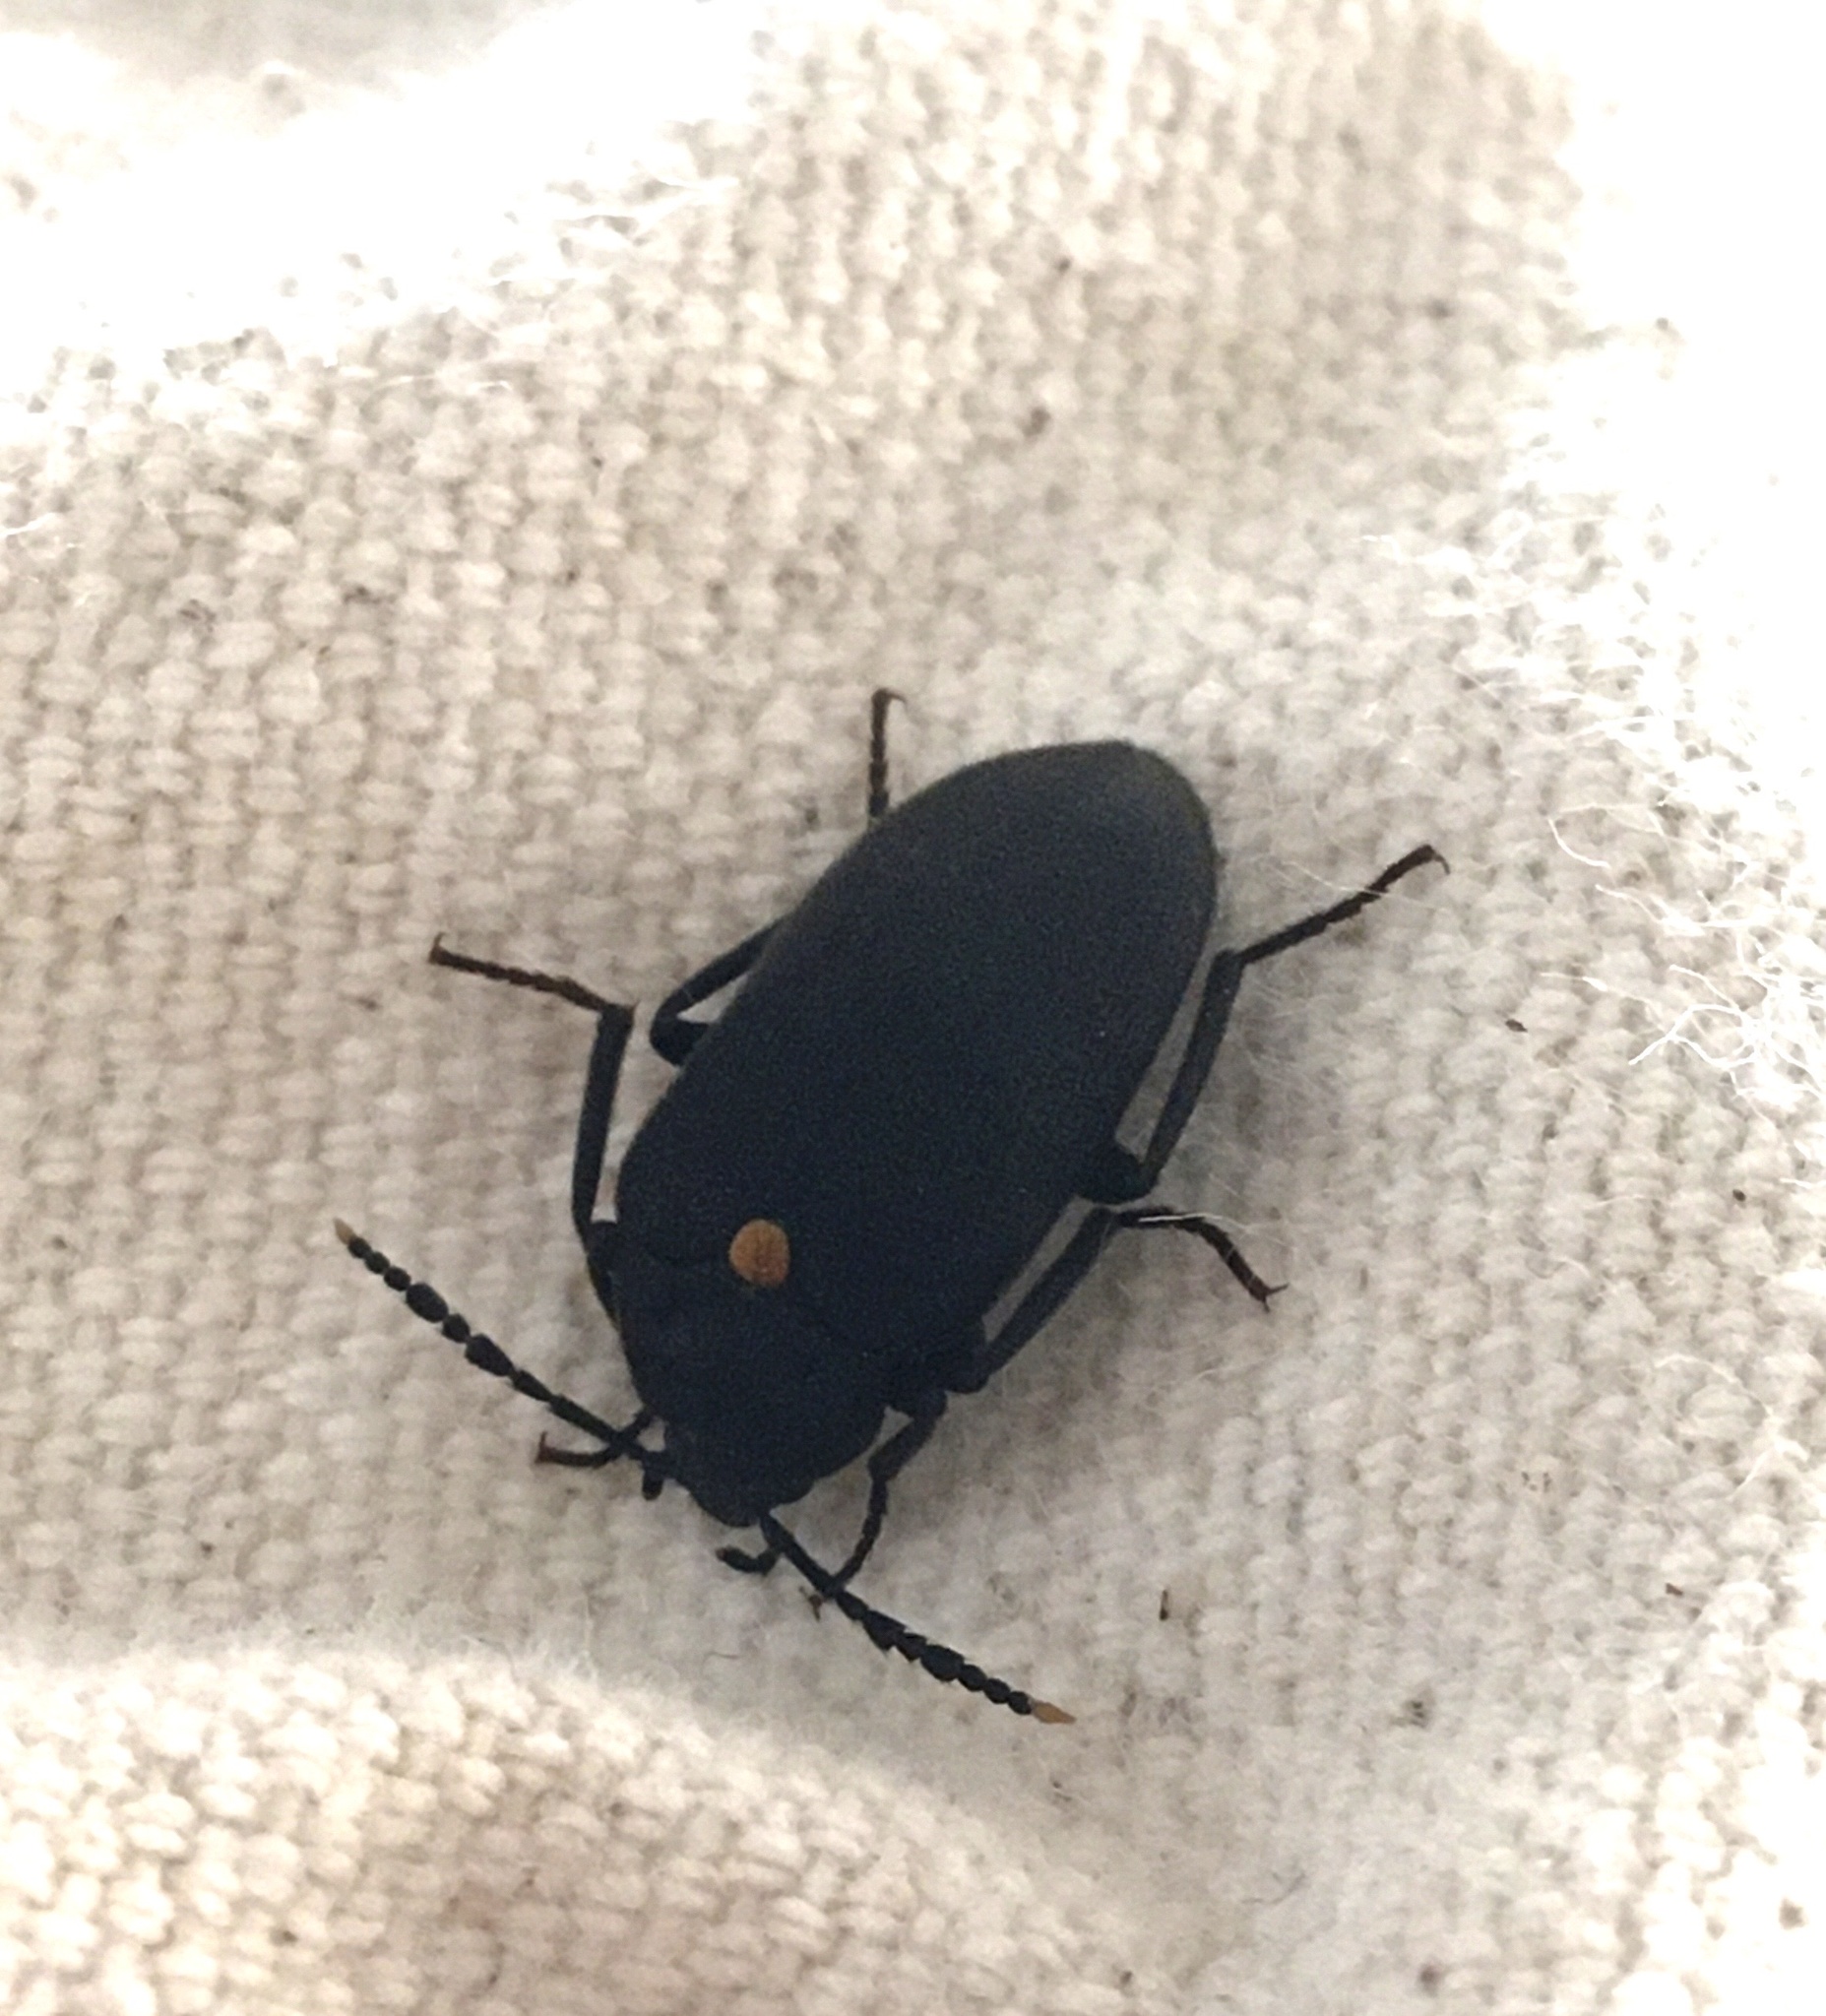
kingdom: Animalia
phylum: Arthropoda
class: Insecta
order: Coleoptera
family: Tetratomidae
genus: Penthe
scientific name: Penthe obliquata
